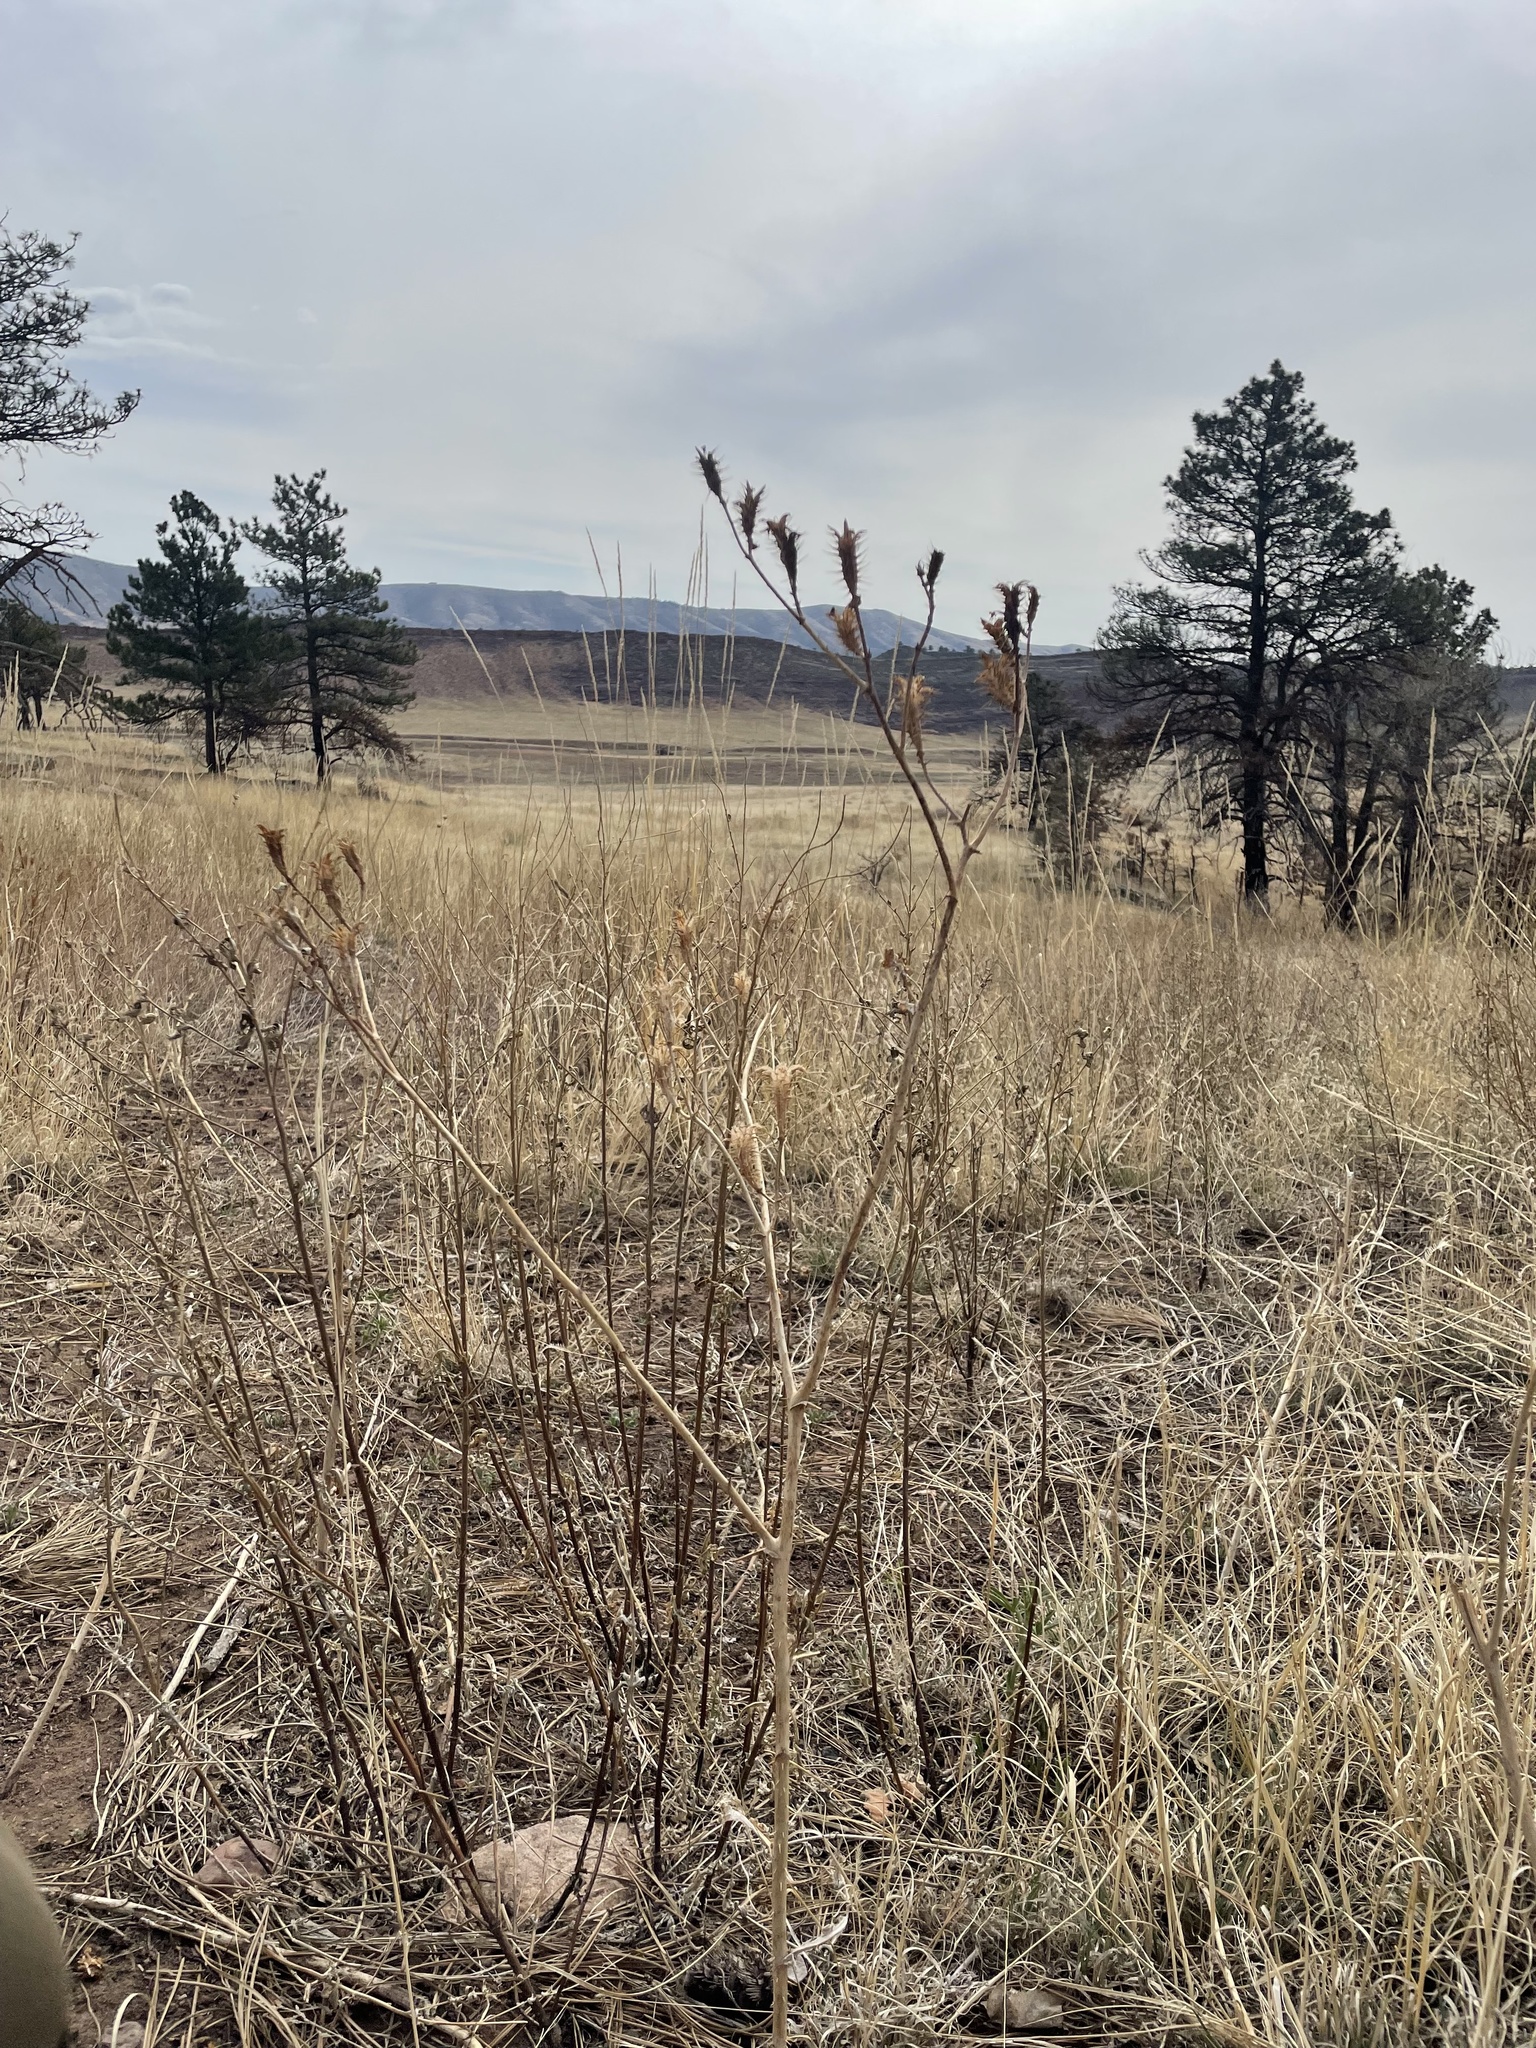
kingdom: Plantae
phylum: Tracheophyta
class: Magnoliopsida
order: Ranunculales
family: Papaveraceae
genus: Argemone
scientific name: Argemone polyanthemos
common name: Plains prickly-poppy
